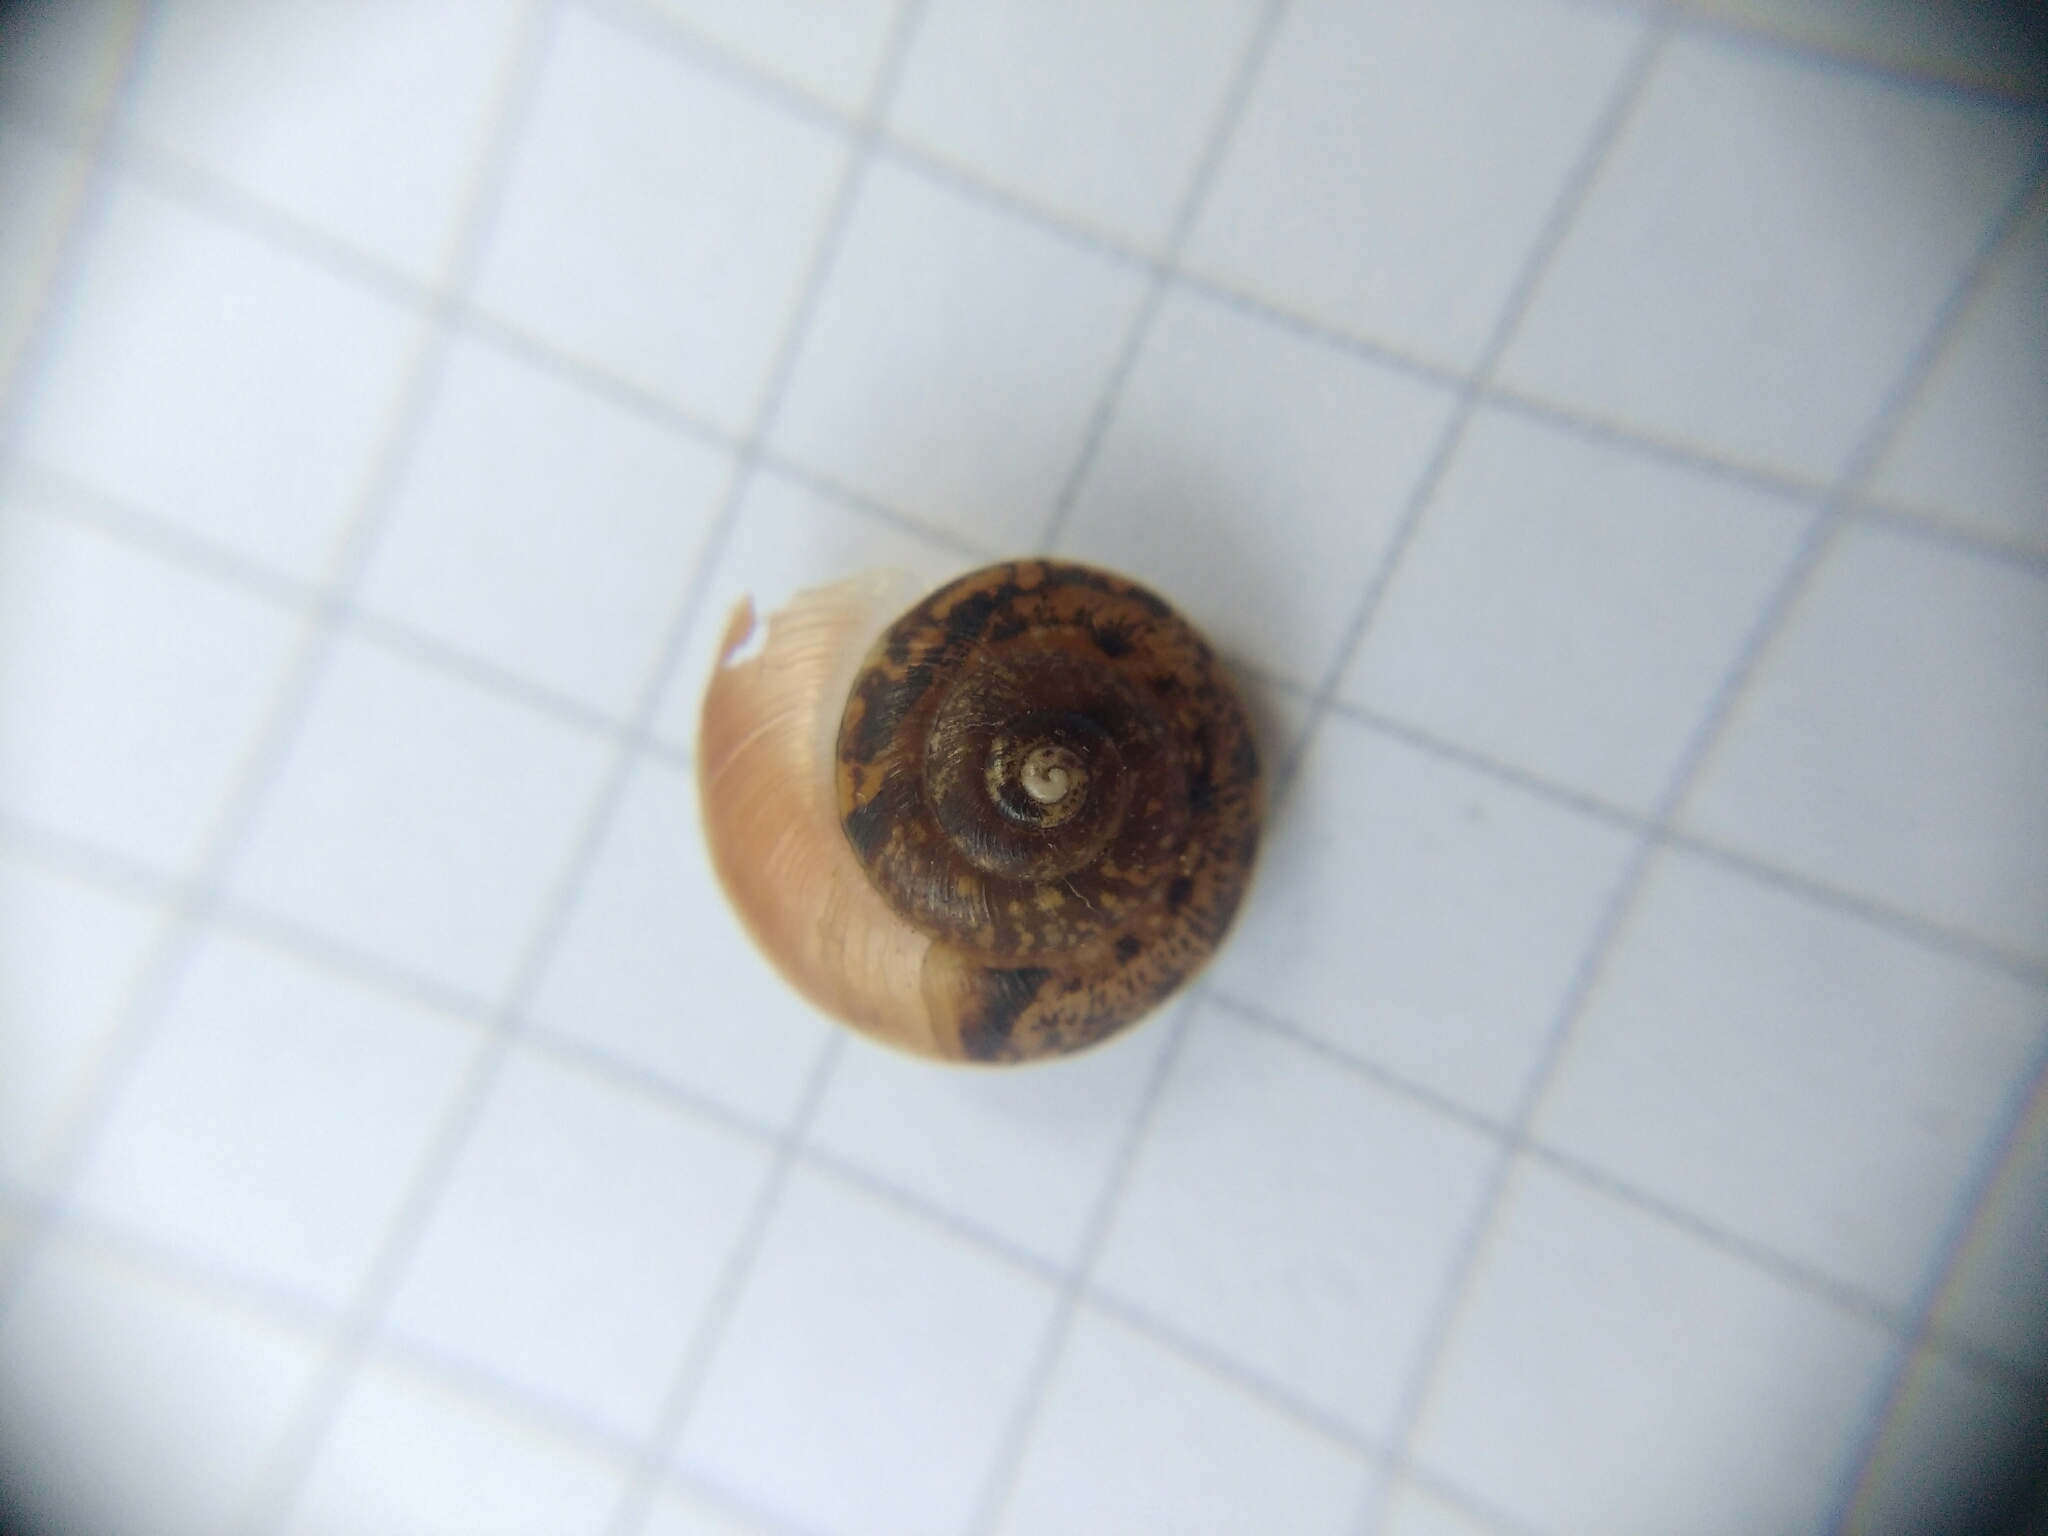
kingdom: Animalia
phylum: Mollusca
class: Gastropoda
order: Stylommatophora
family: Hygromiidae
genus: Hygromia
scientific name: Hygromia cinctella
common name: Girdled snail
